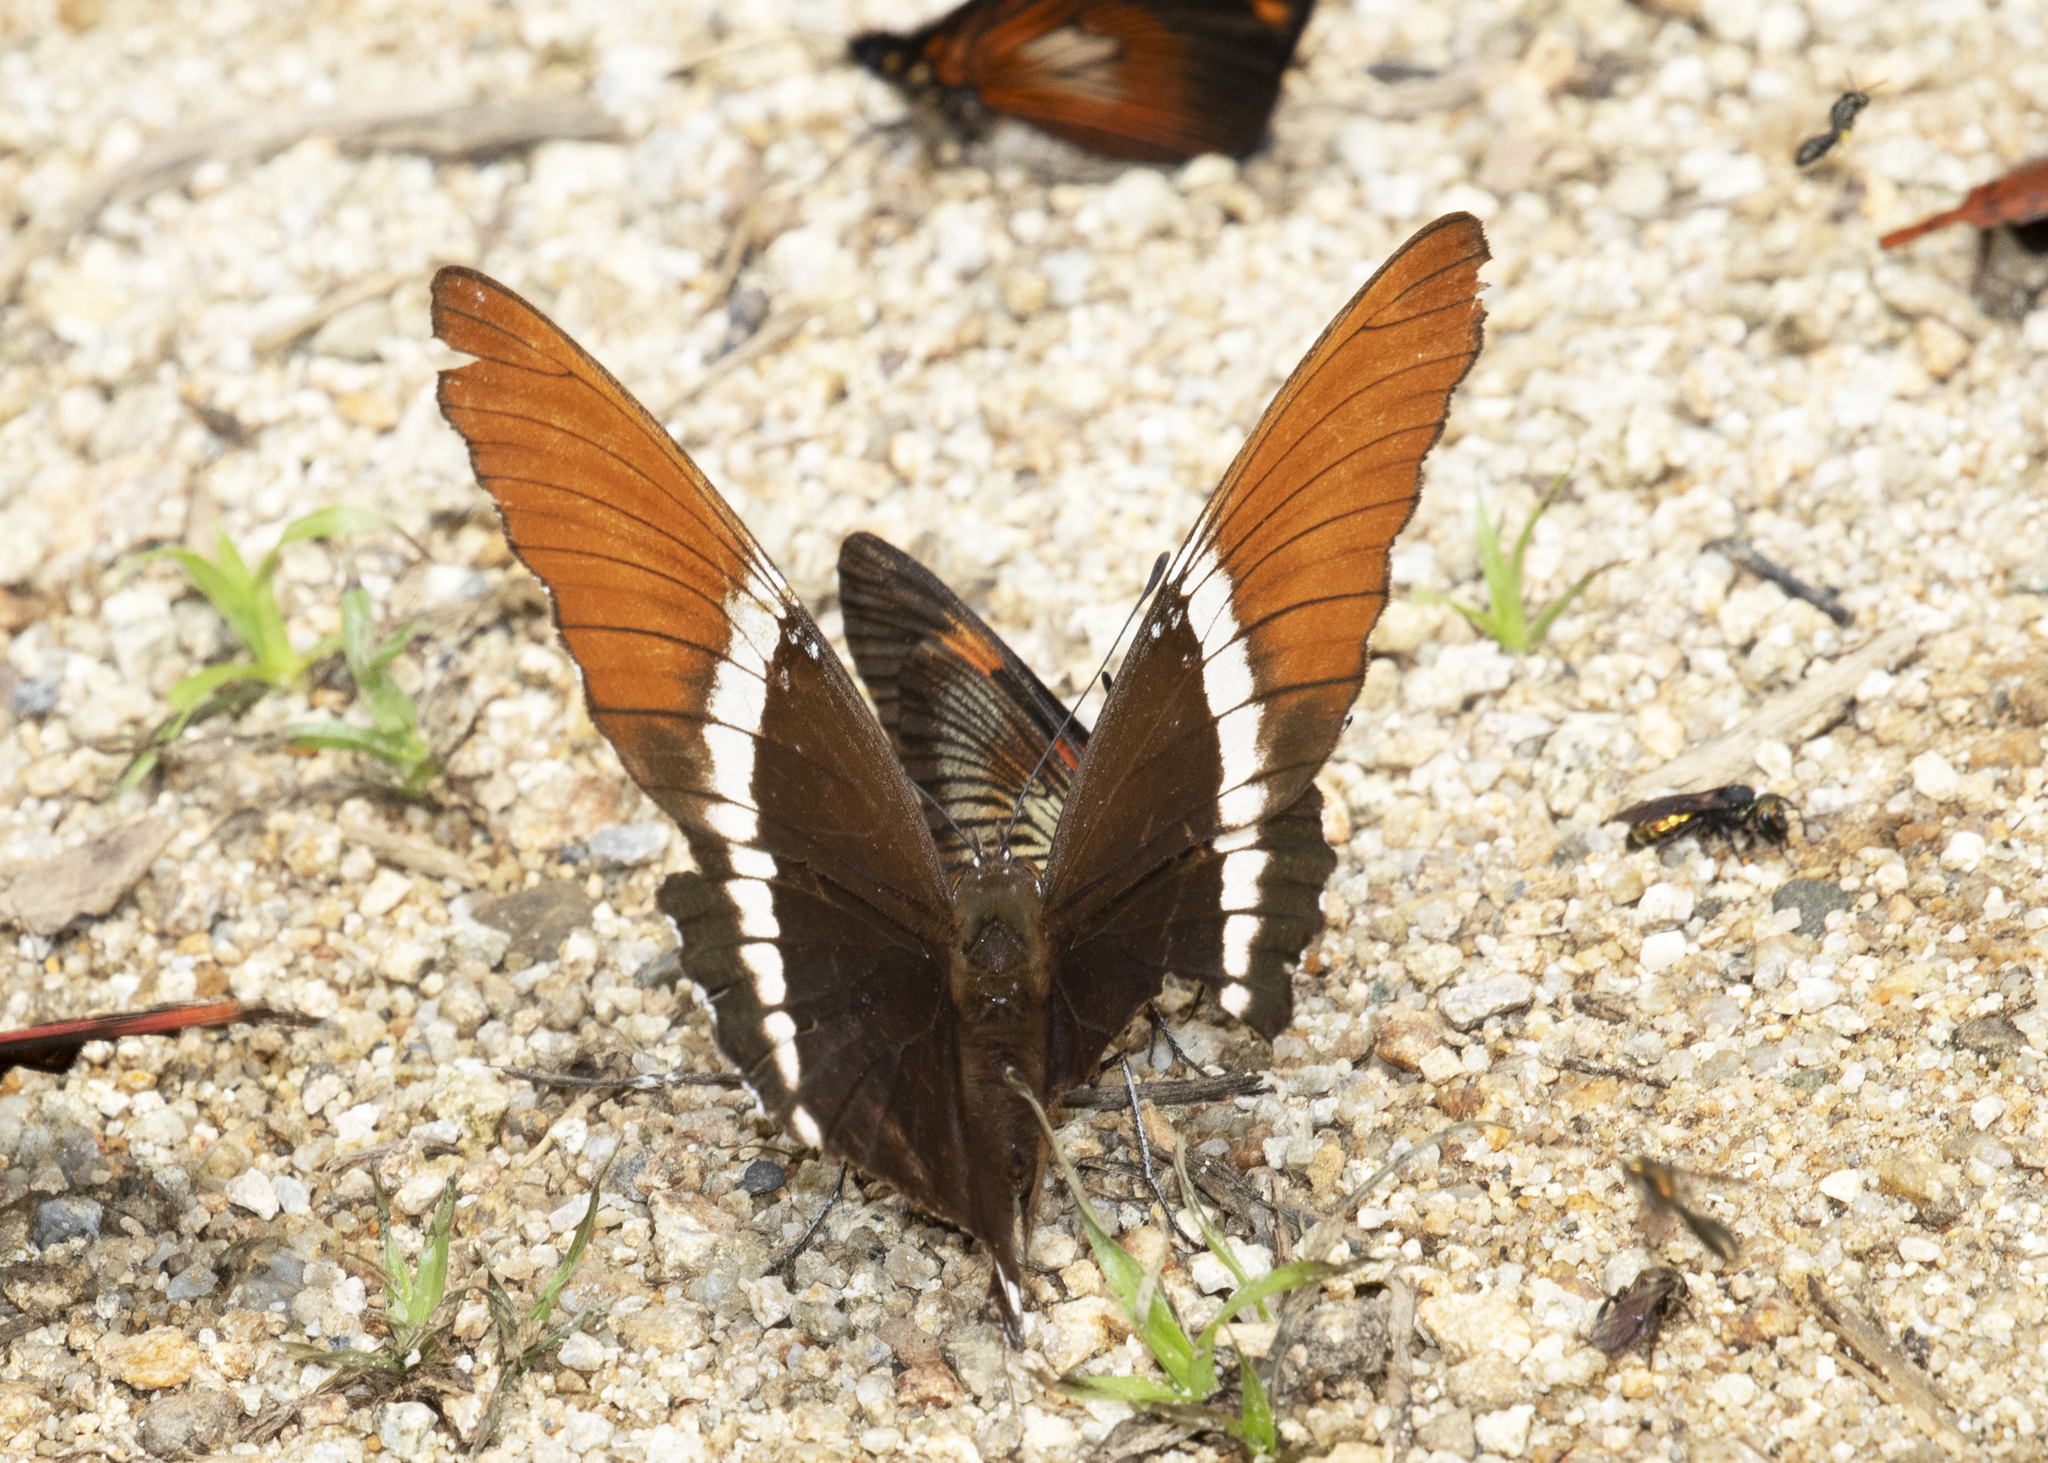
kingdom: Animalia
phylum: Arthropoda
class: Insecta
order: Lepidoptera
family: Nymphalidae
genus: Siproeta
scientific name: Siproeta epaphus
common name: Rusty-tipped page
